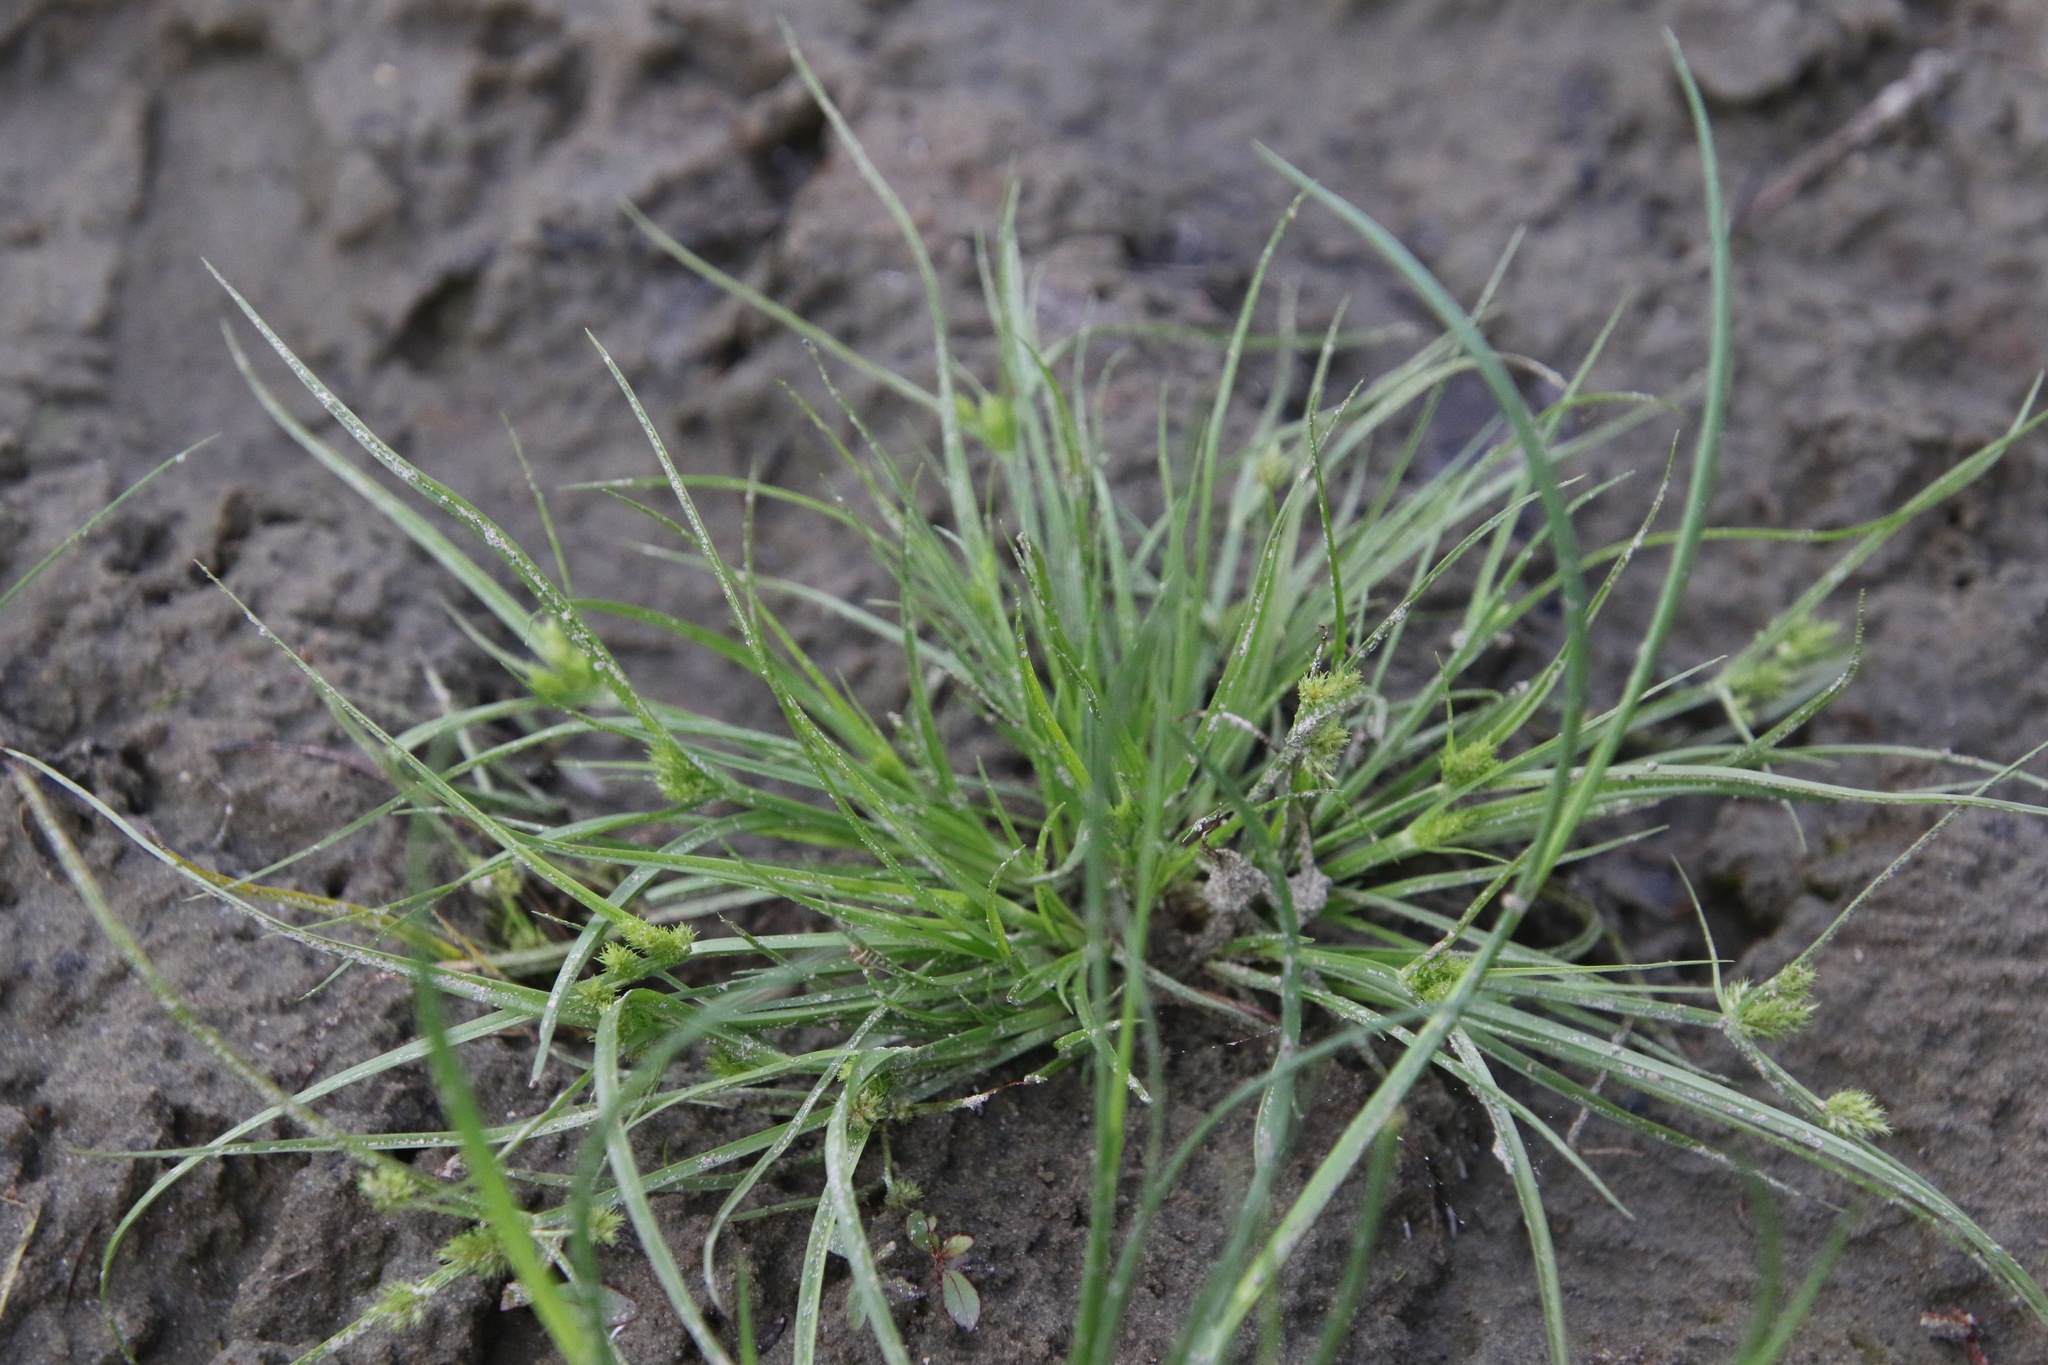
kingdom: Plantae
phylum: Tracheophyta
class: Liliopsida
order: Poales
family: Cyperaceae
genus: Cyperus
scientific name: Cyperus squarrosus
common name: Awned cyperus
